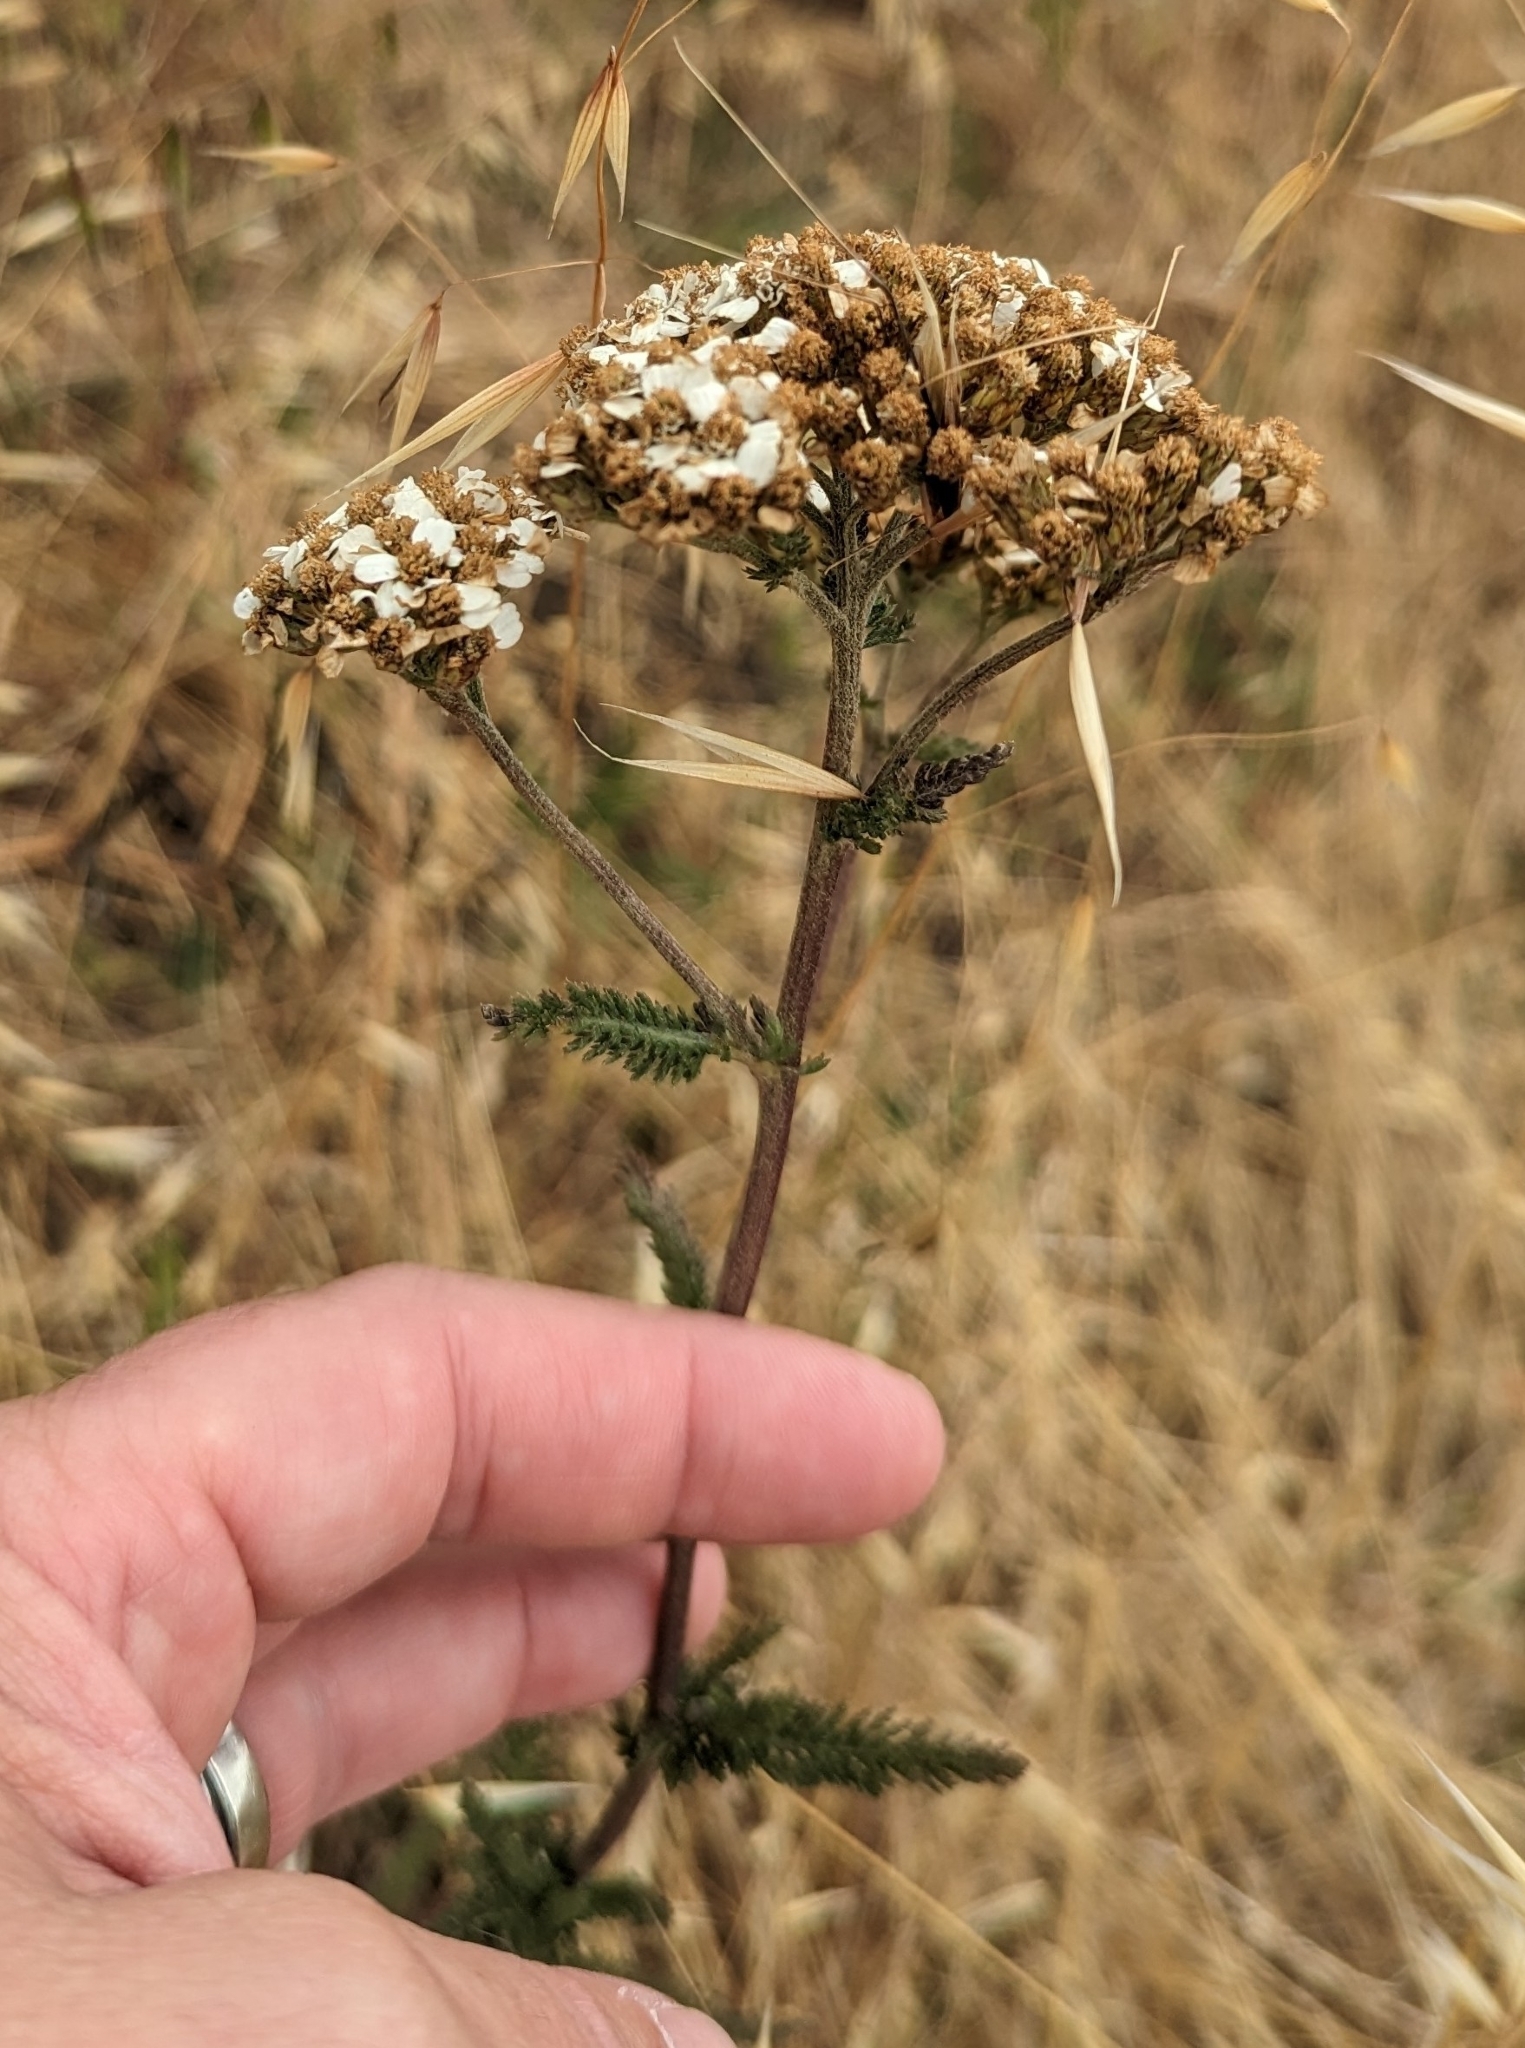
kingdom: Plantae
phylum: Tracheophyta
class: Magnoliopsida
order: Asterales
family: Asteraceae
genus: Achillea
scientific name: Achillea millefolium
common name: Yarrow
